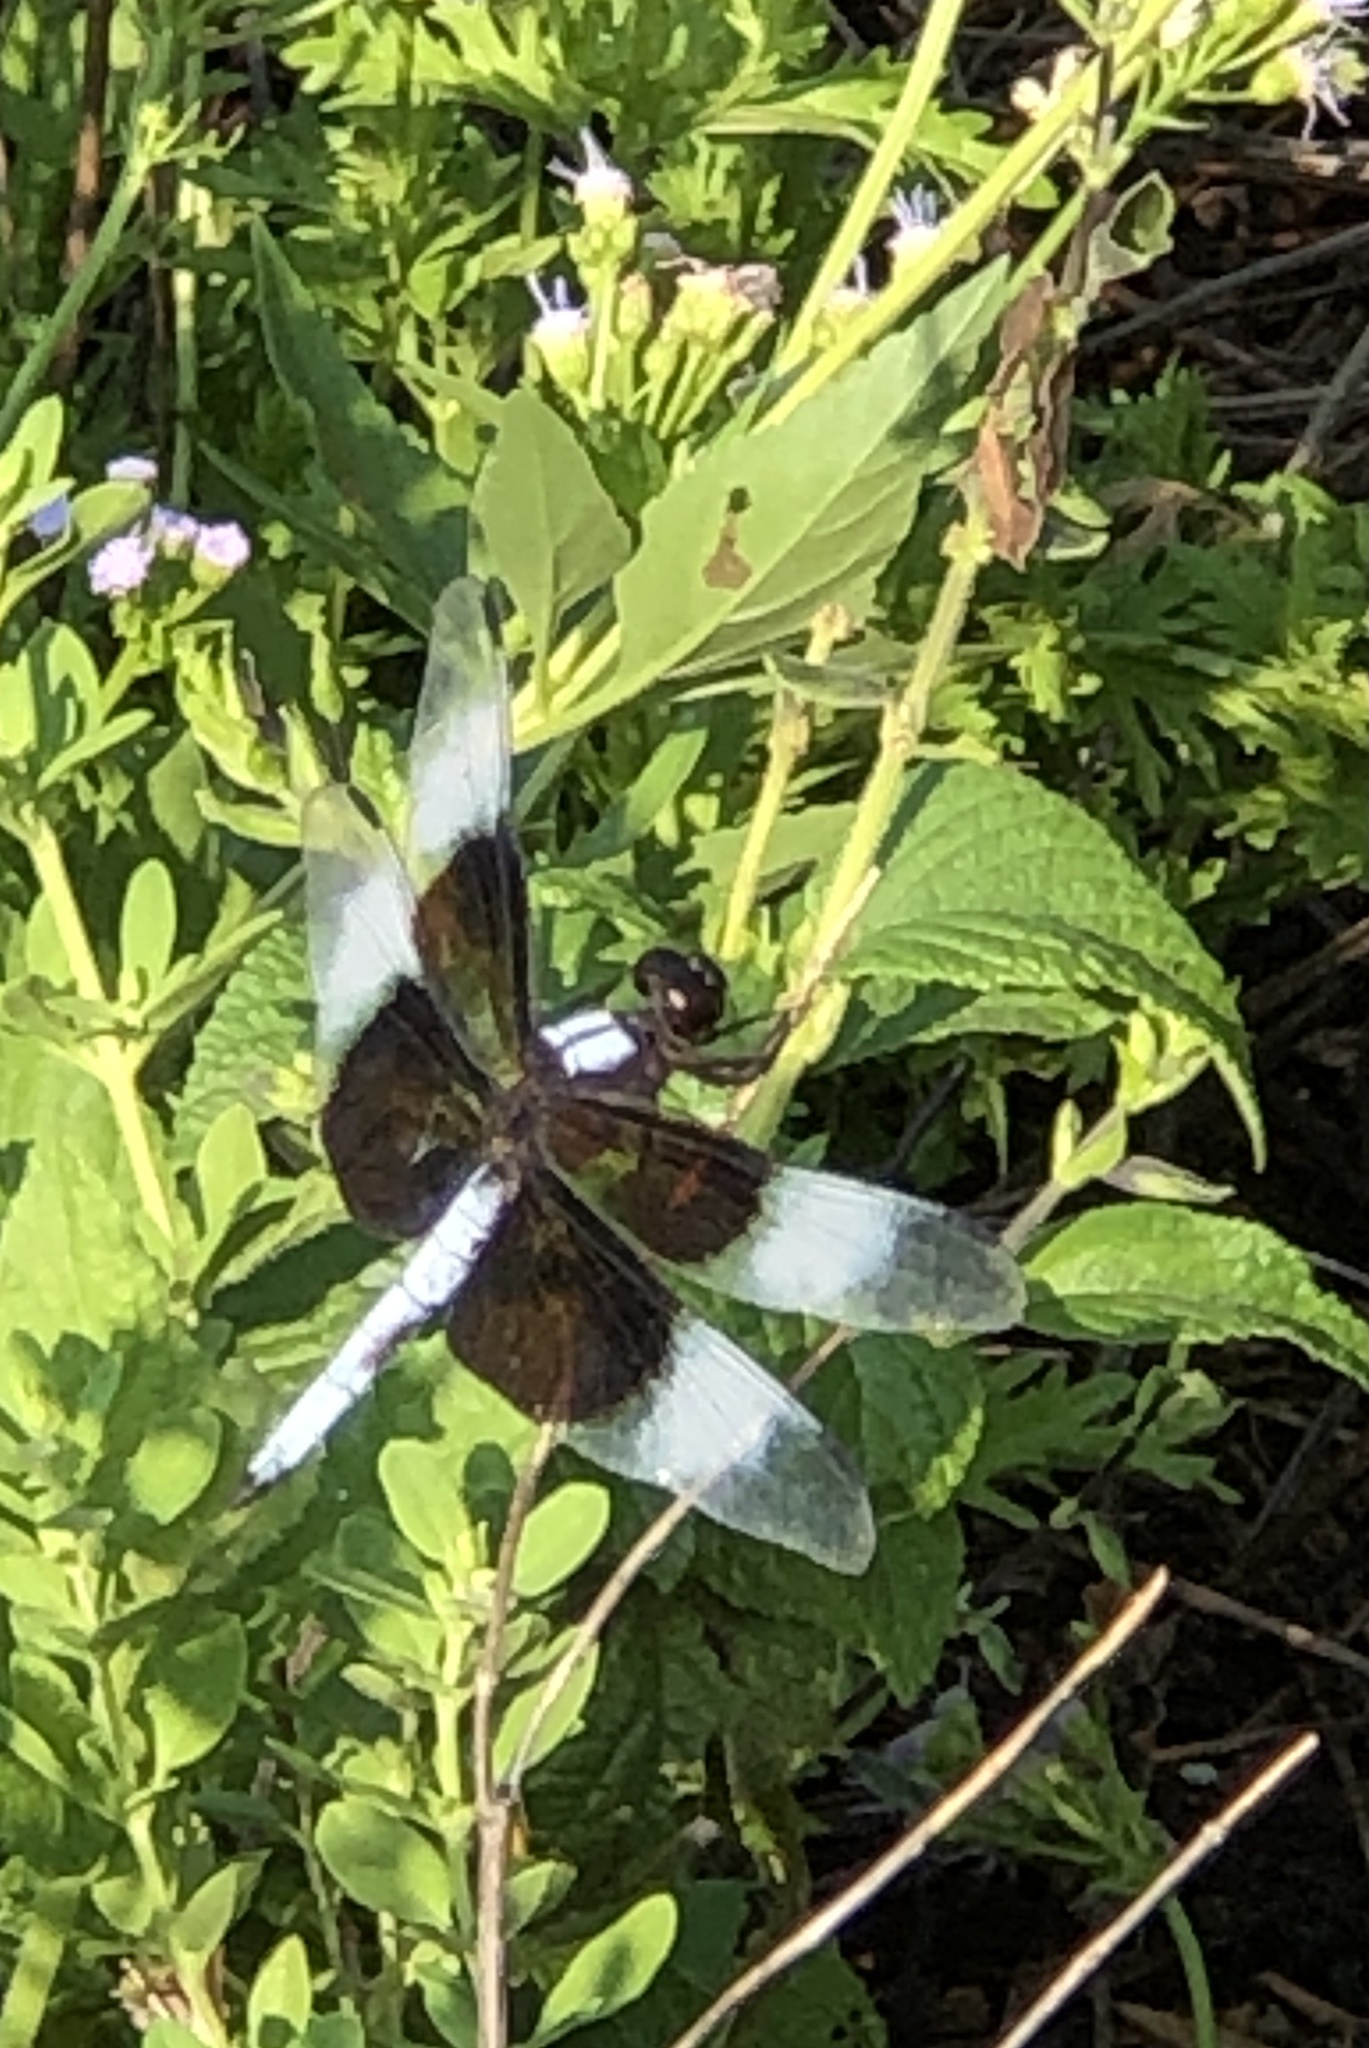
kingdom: Animalia
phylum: Arthropoda
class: Insecta
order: Odonata
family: Libellulidae
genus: Libellula
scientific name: Libellula luctuosa
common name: Widow skimmer
